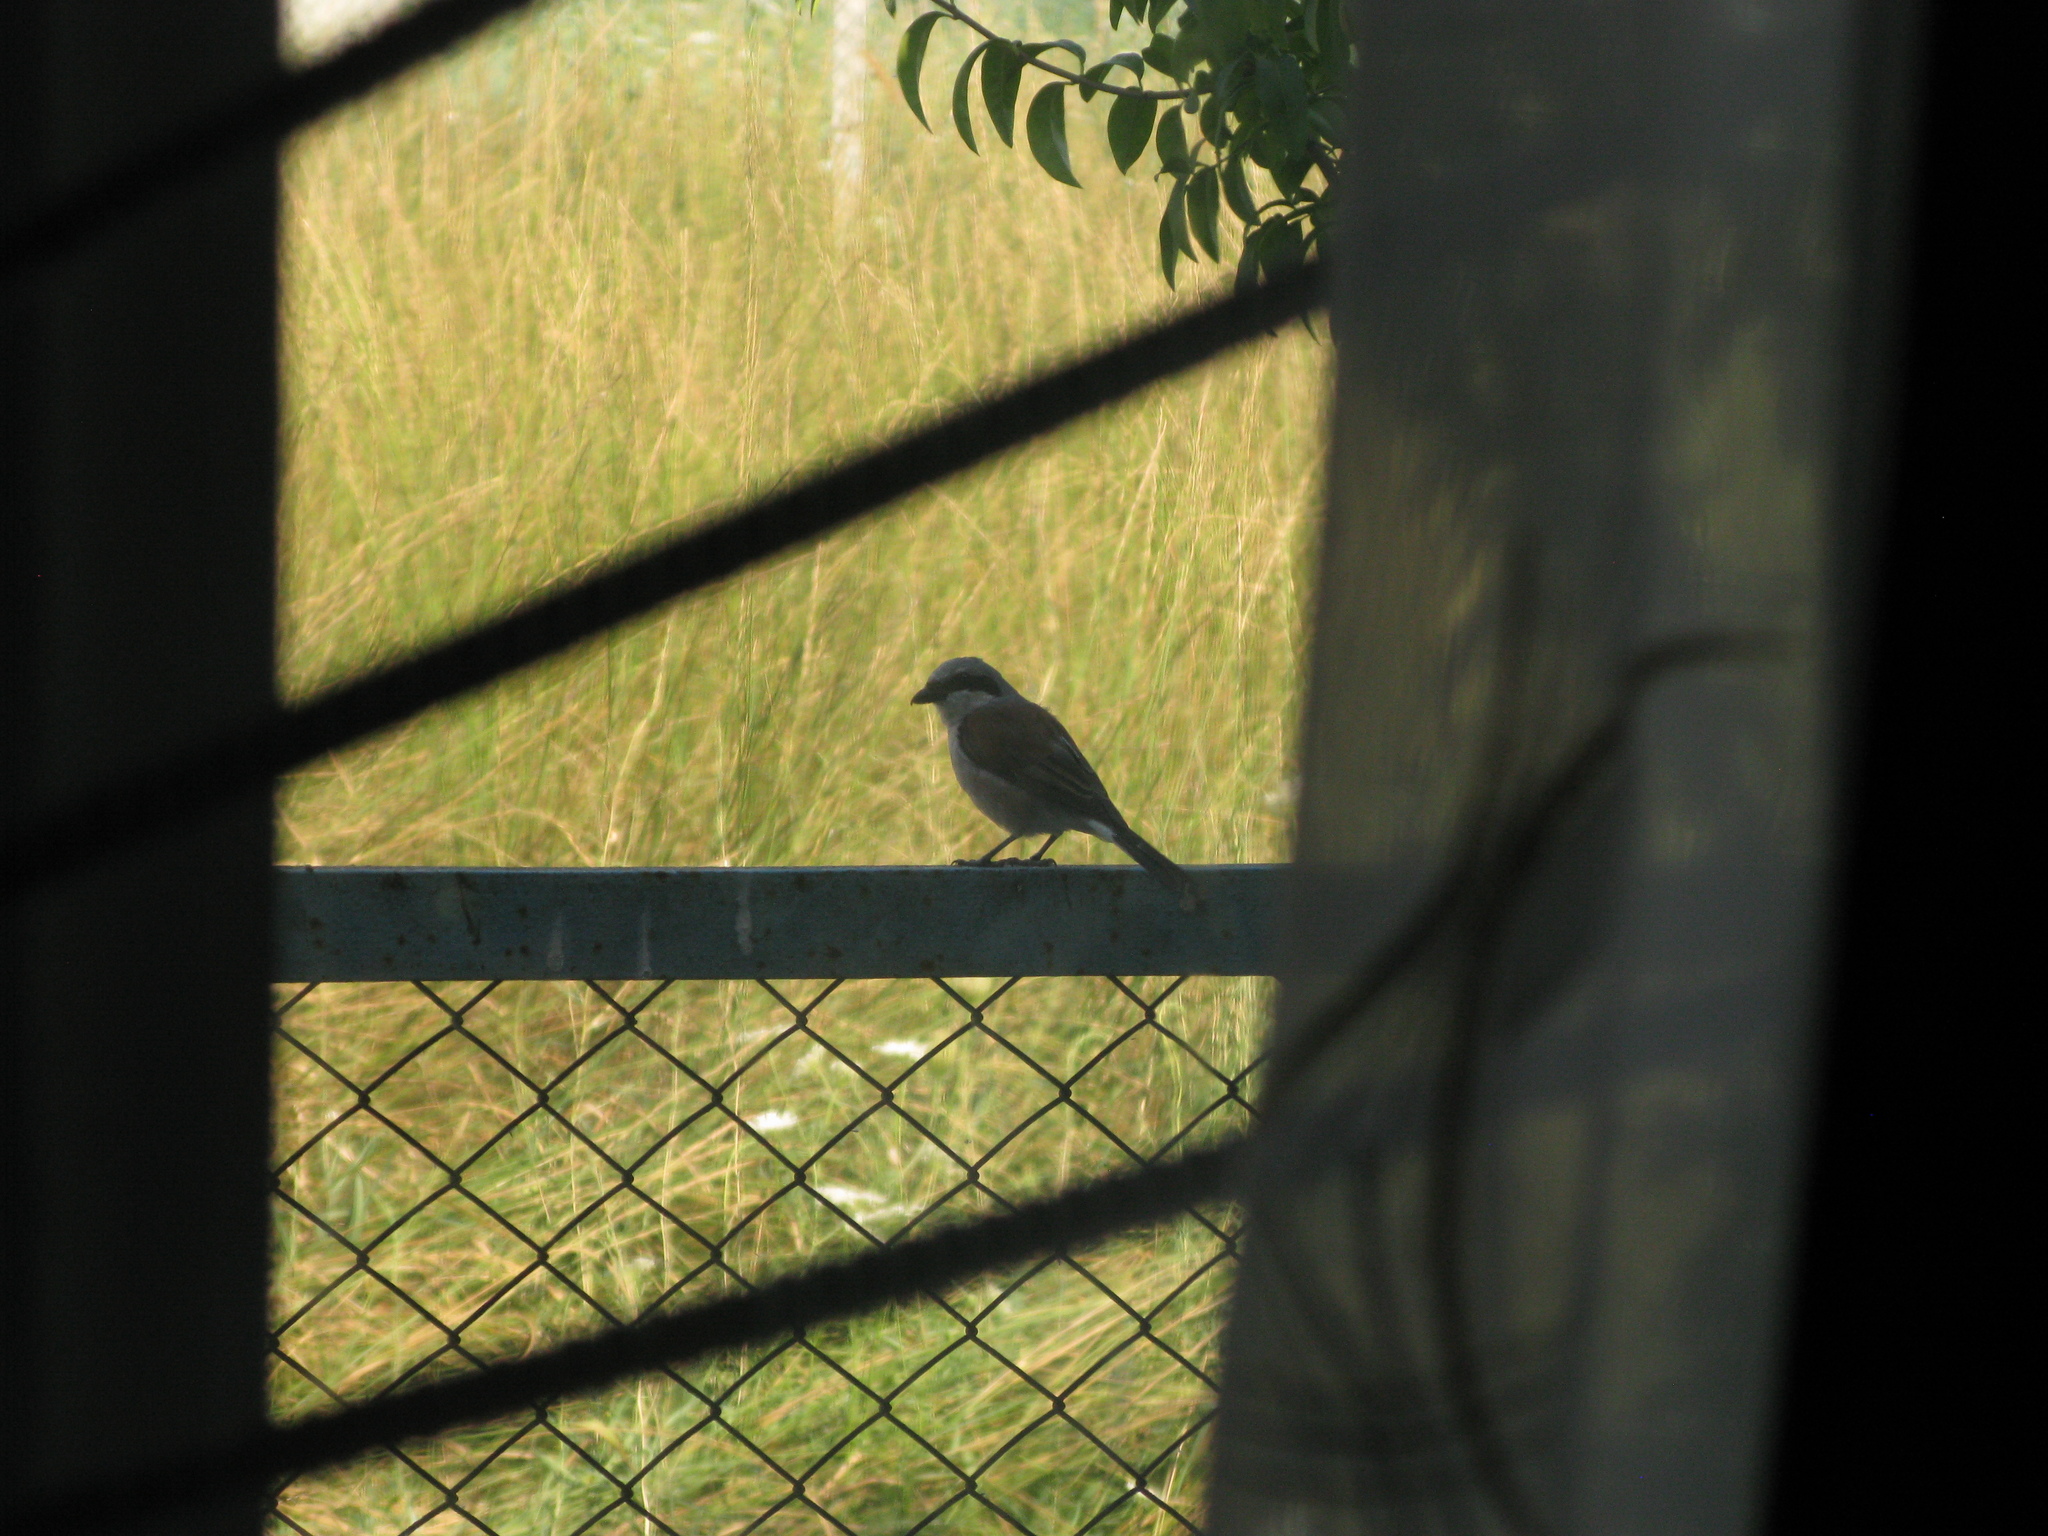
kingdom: Animalia
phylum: Chordata
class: Aves
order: Passeriformes
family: Laniidae
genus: Lanius
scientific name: Lanius collurio
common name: Red-backed shrike
